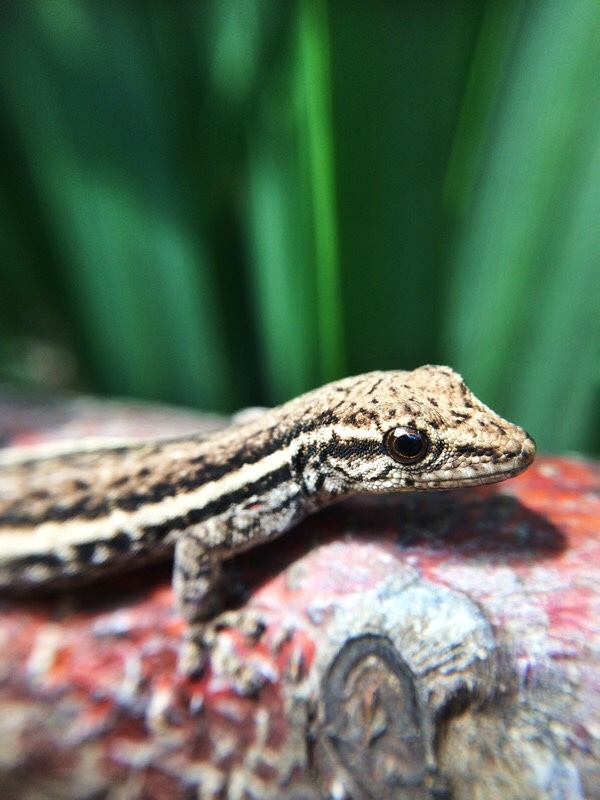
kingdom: Animalia
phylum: Chordata
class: Squamata
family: Gekkonidae
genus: Lygodactylus
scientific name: Lygodactylus capensis
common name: Cape dwarf gecko
